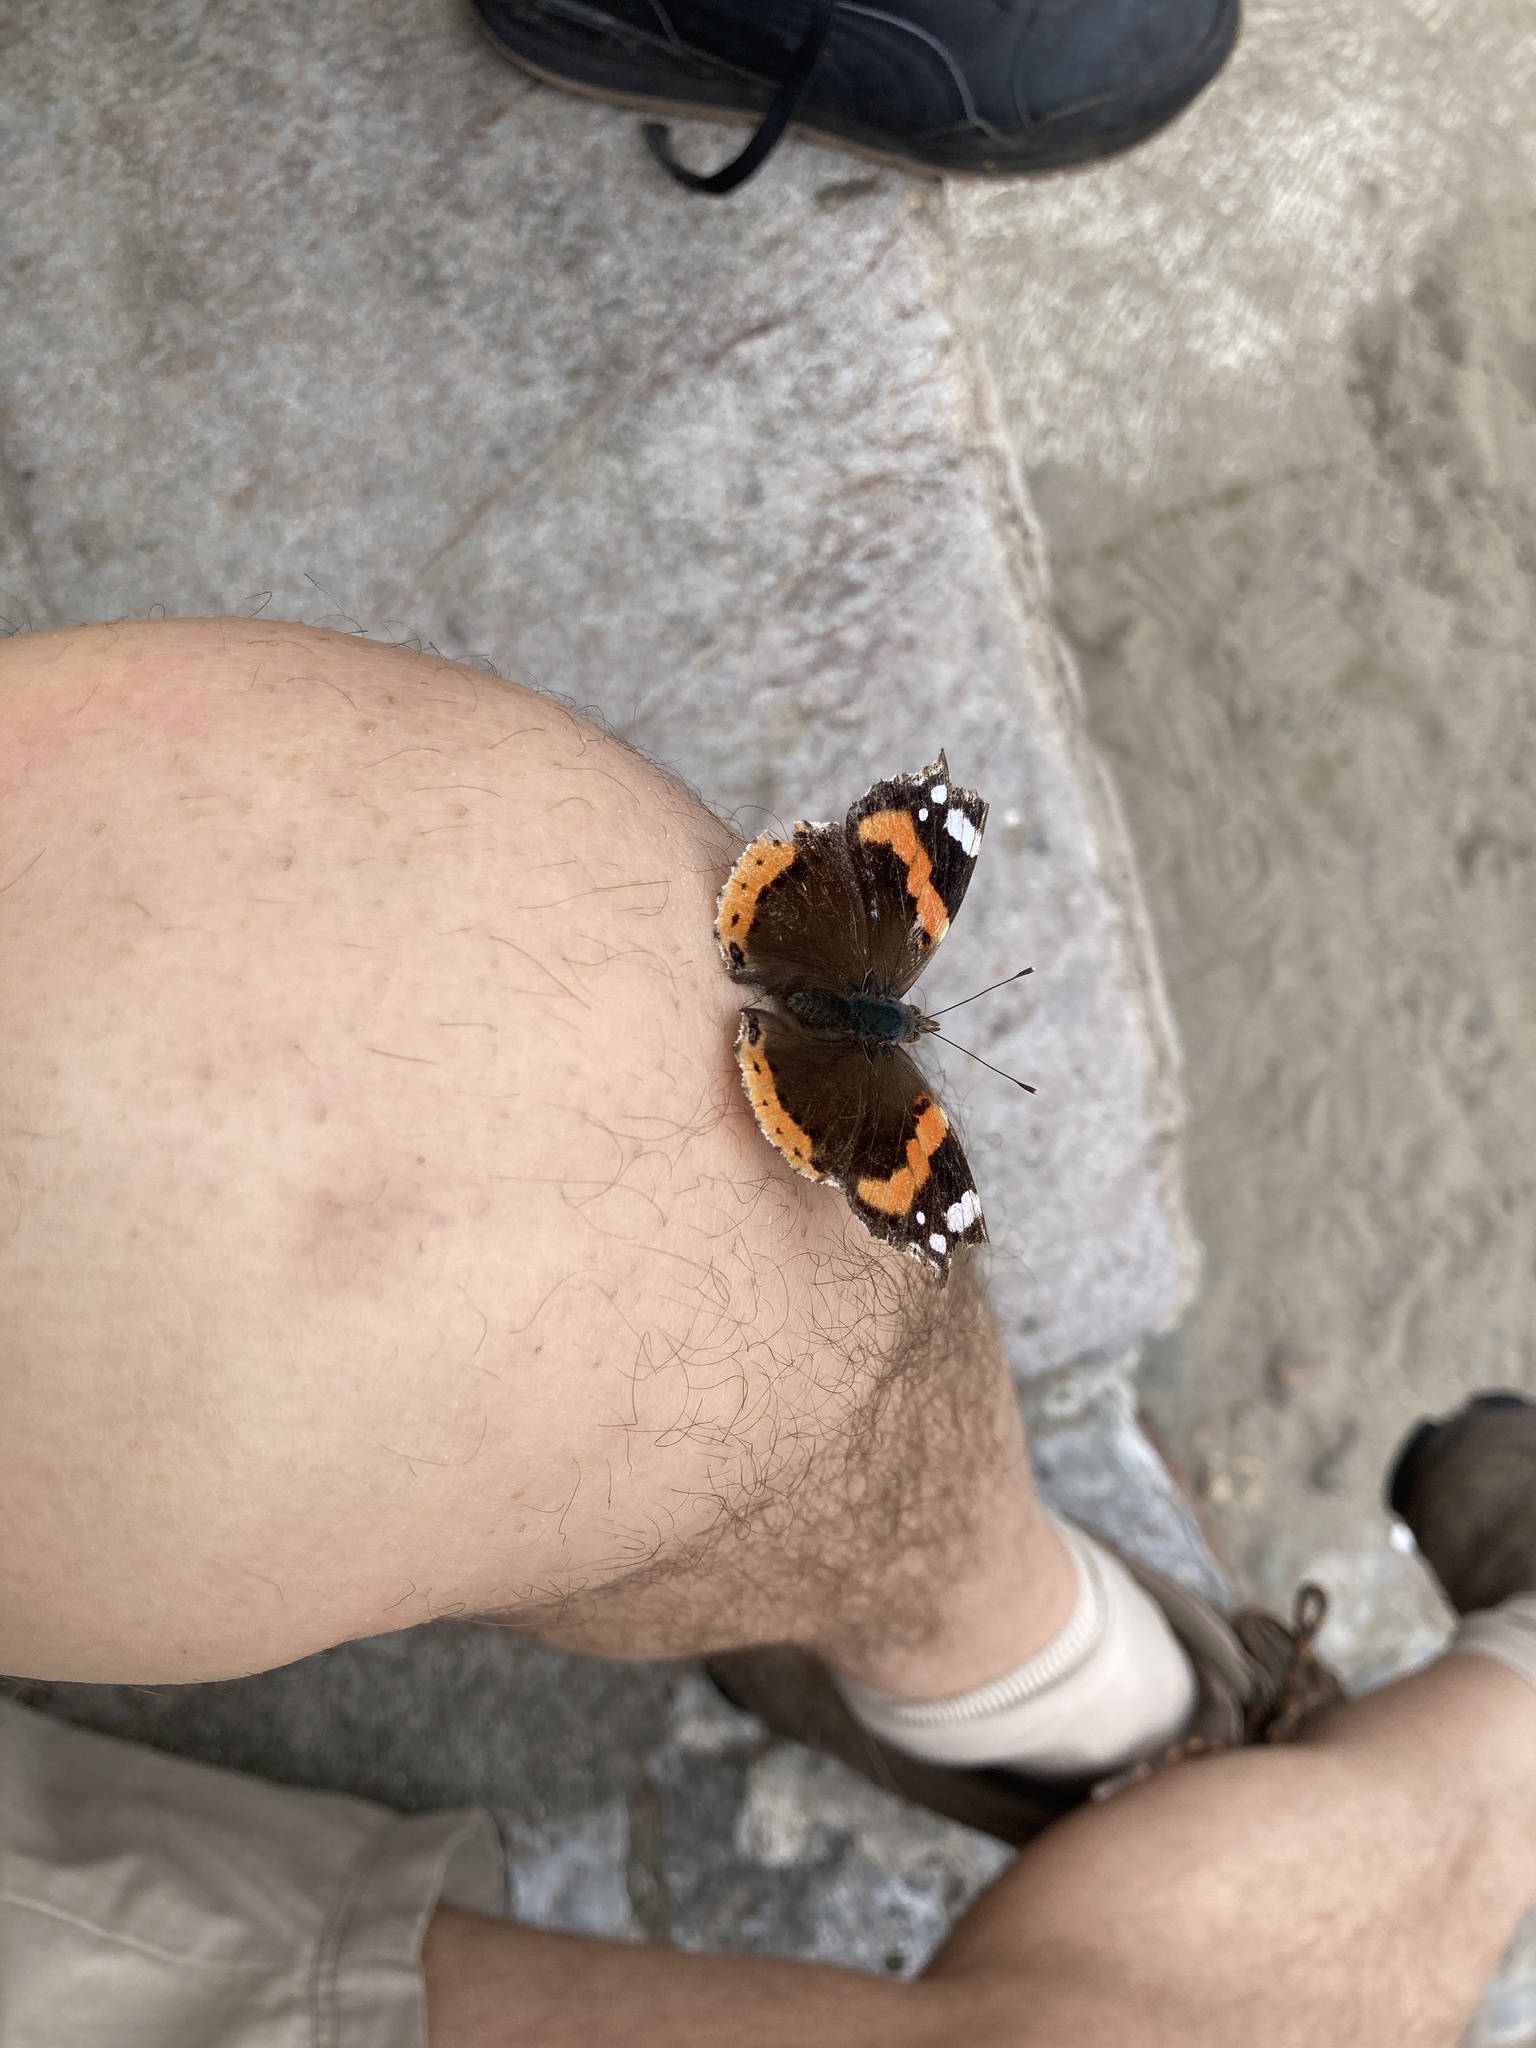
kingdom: Animalia
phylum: Arthropoda
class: Insecta
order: Lepidoptera
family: Nymphalidae
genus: Vanessa
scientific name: Vanessa atalanta
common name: Red admiral
